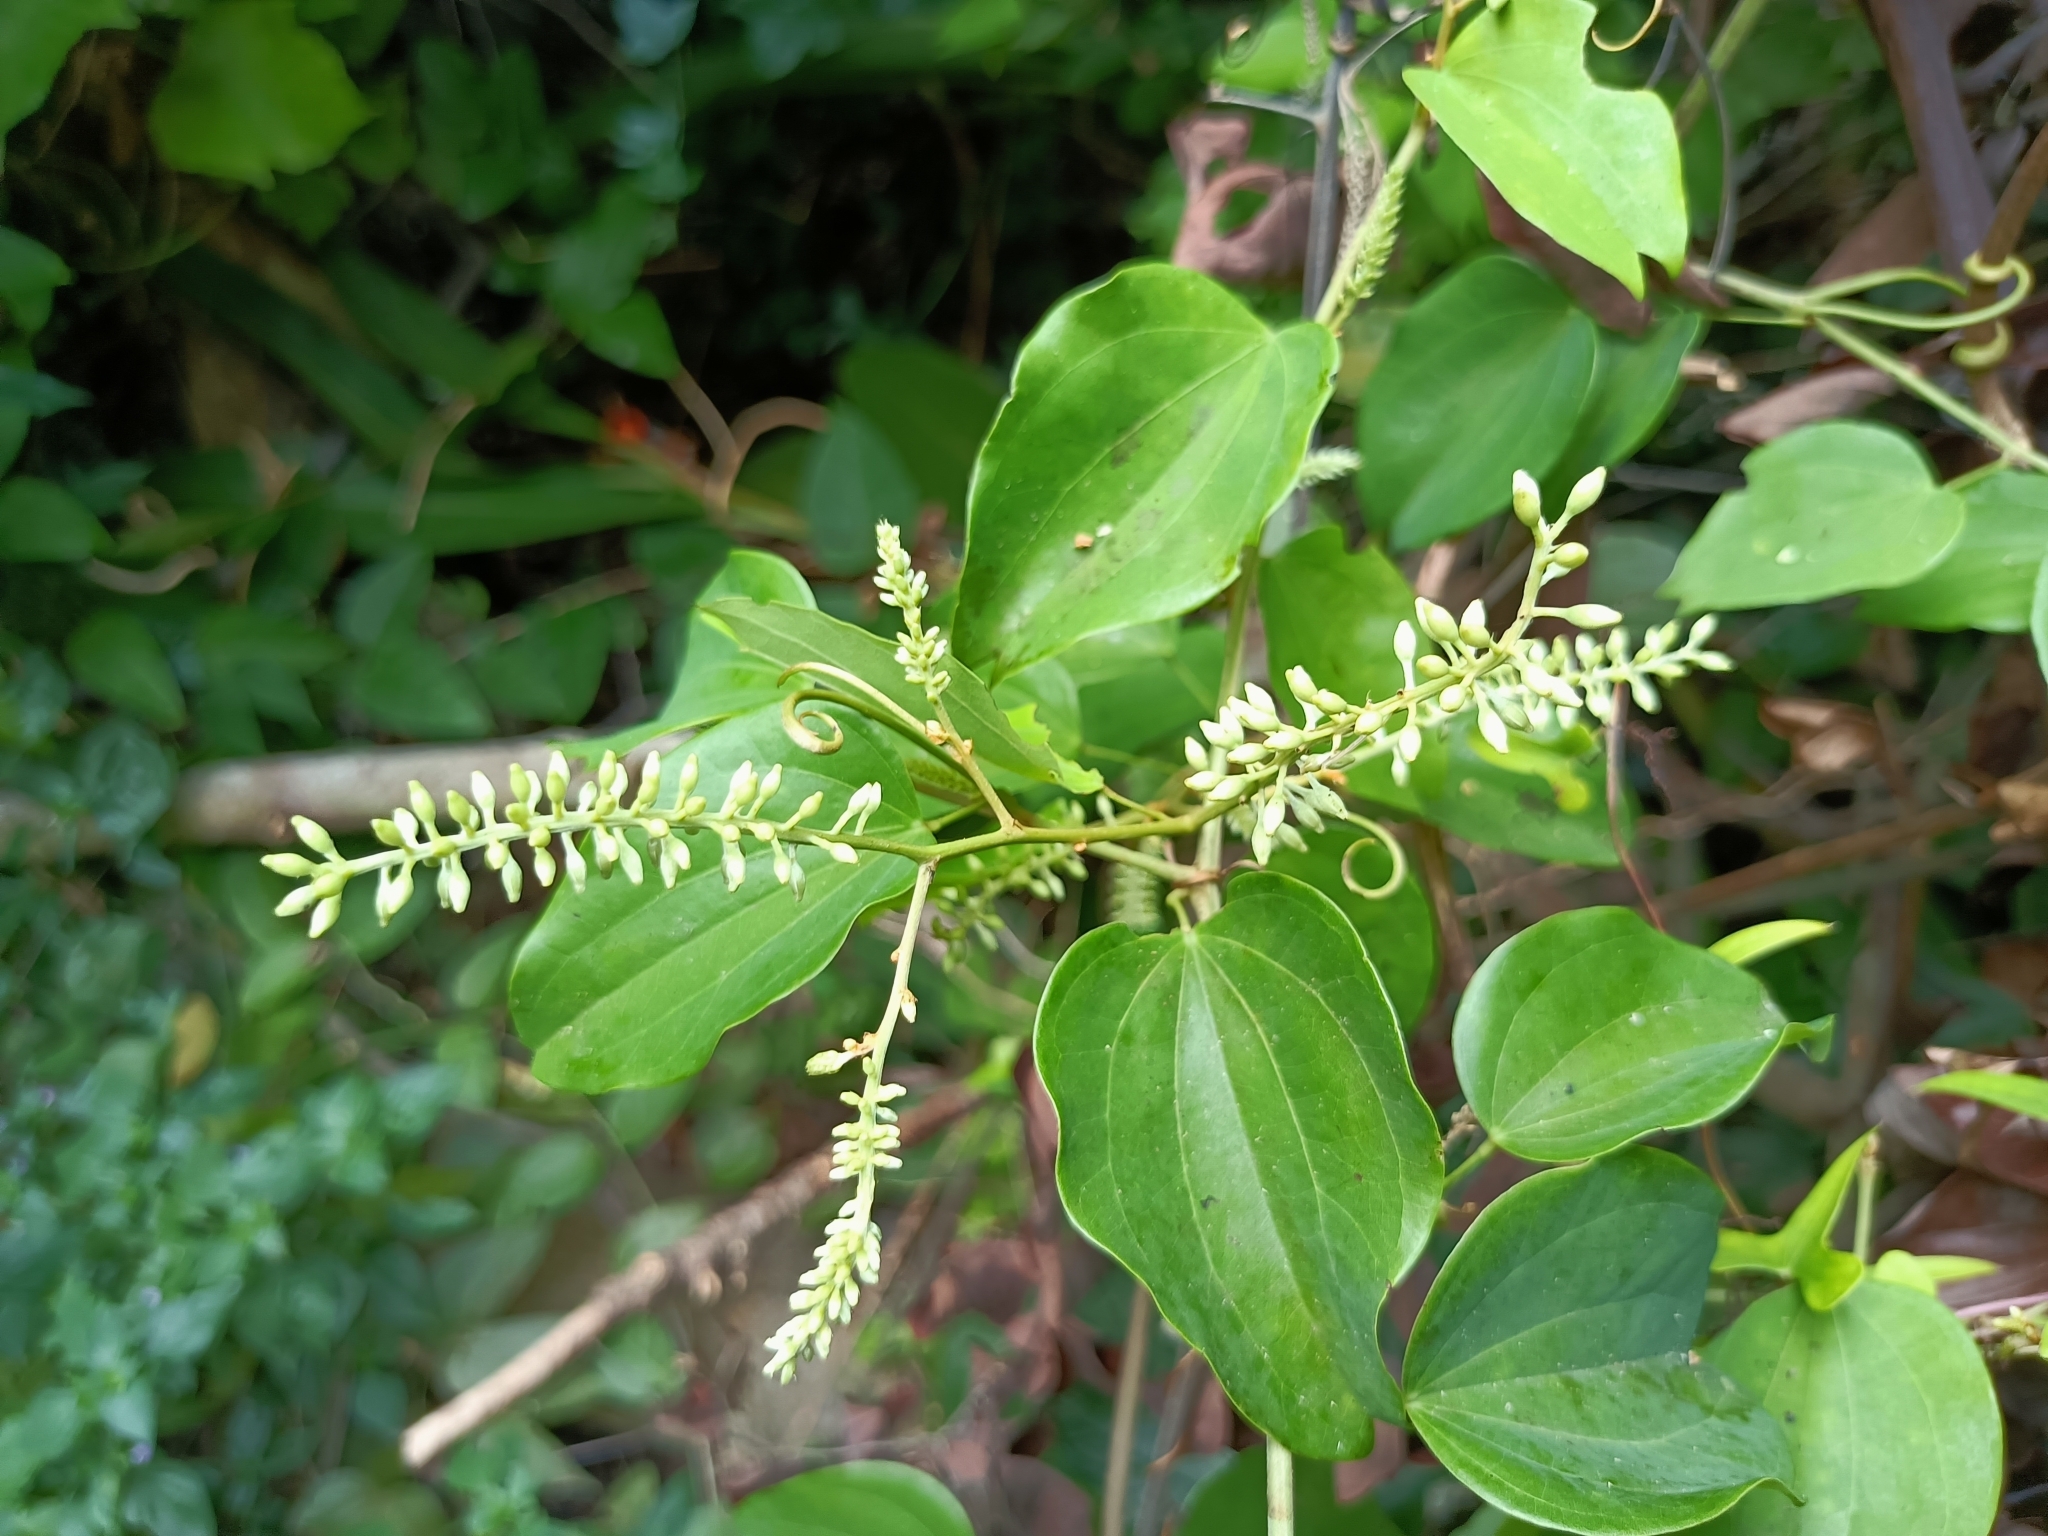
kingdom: Plantae
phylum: Tracheophyta
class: Magnoliopsida
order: Fabales
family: Fabaceae
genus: Phanera
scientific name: Phanera championii
